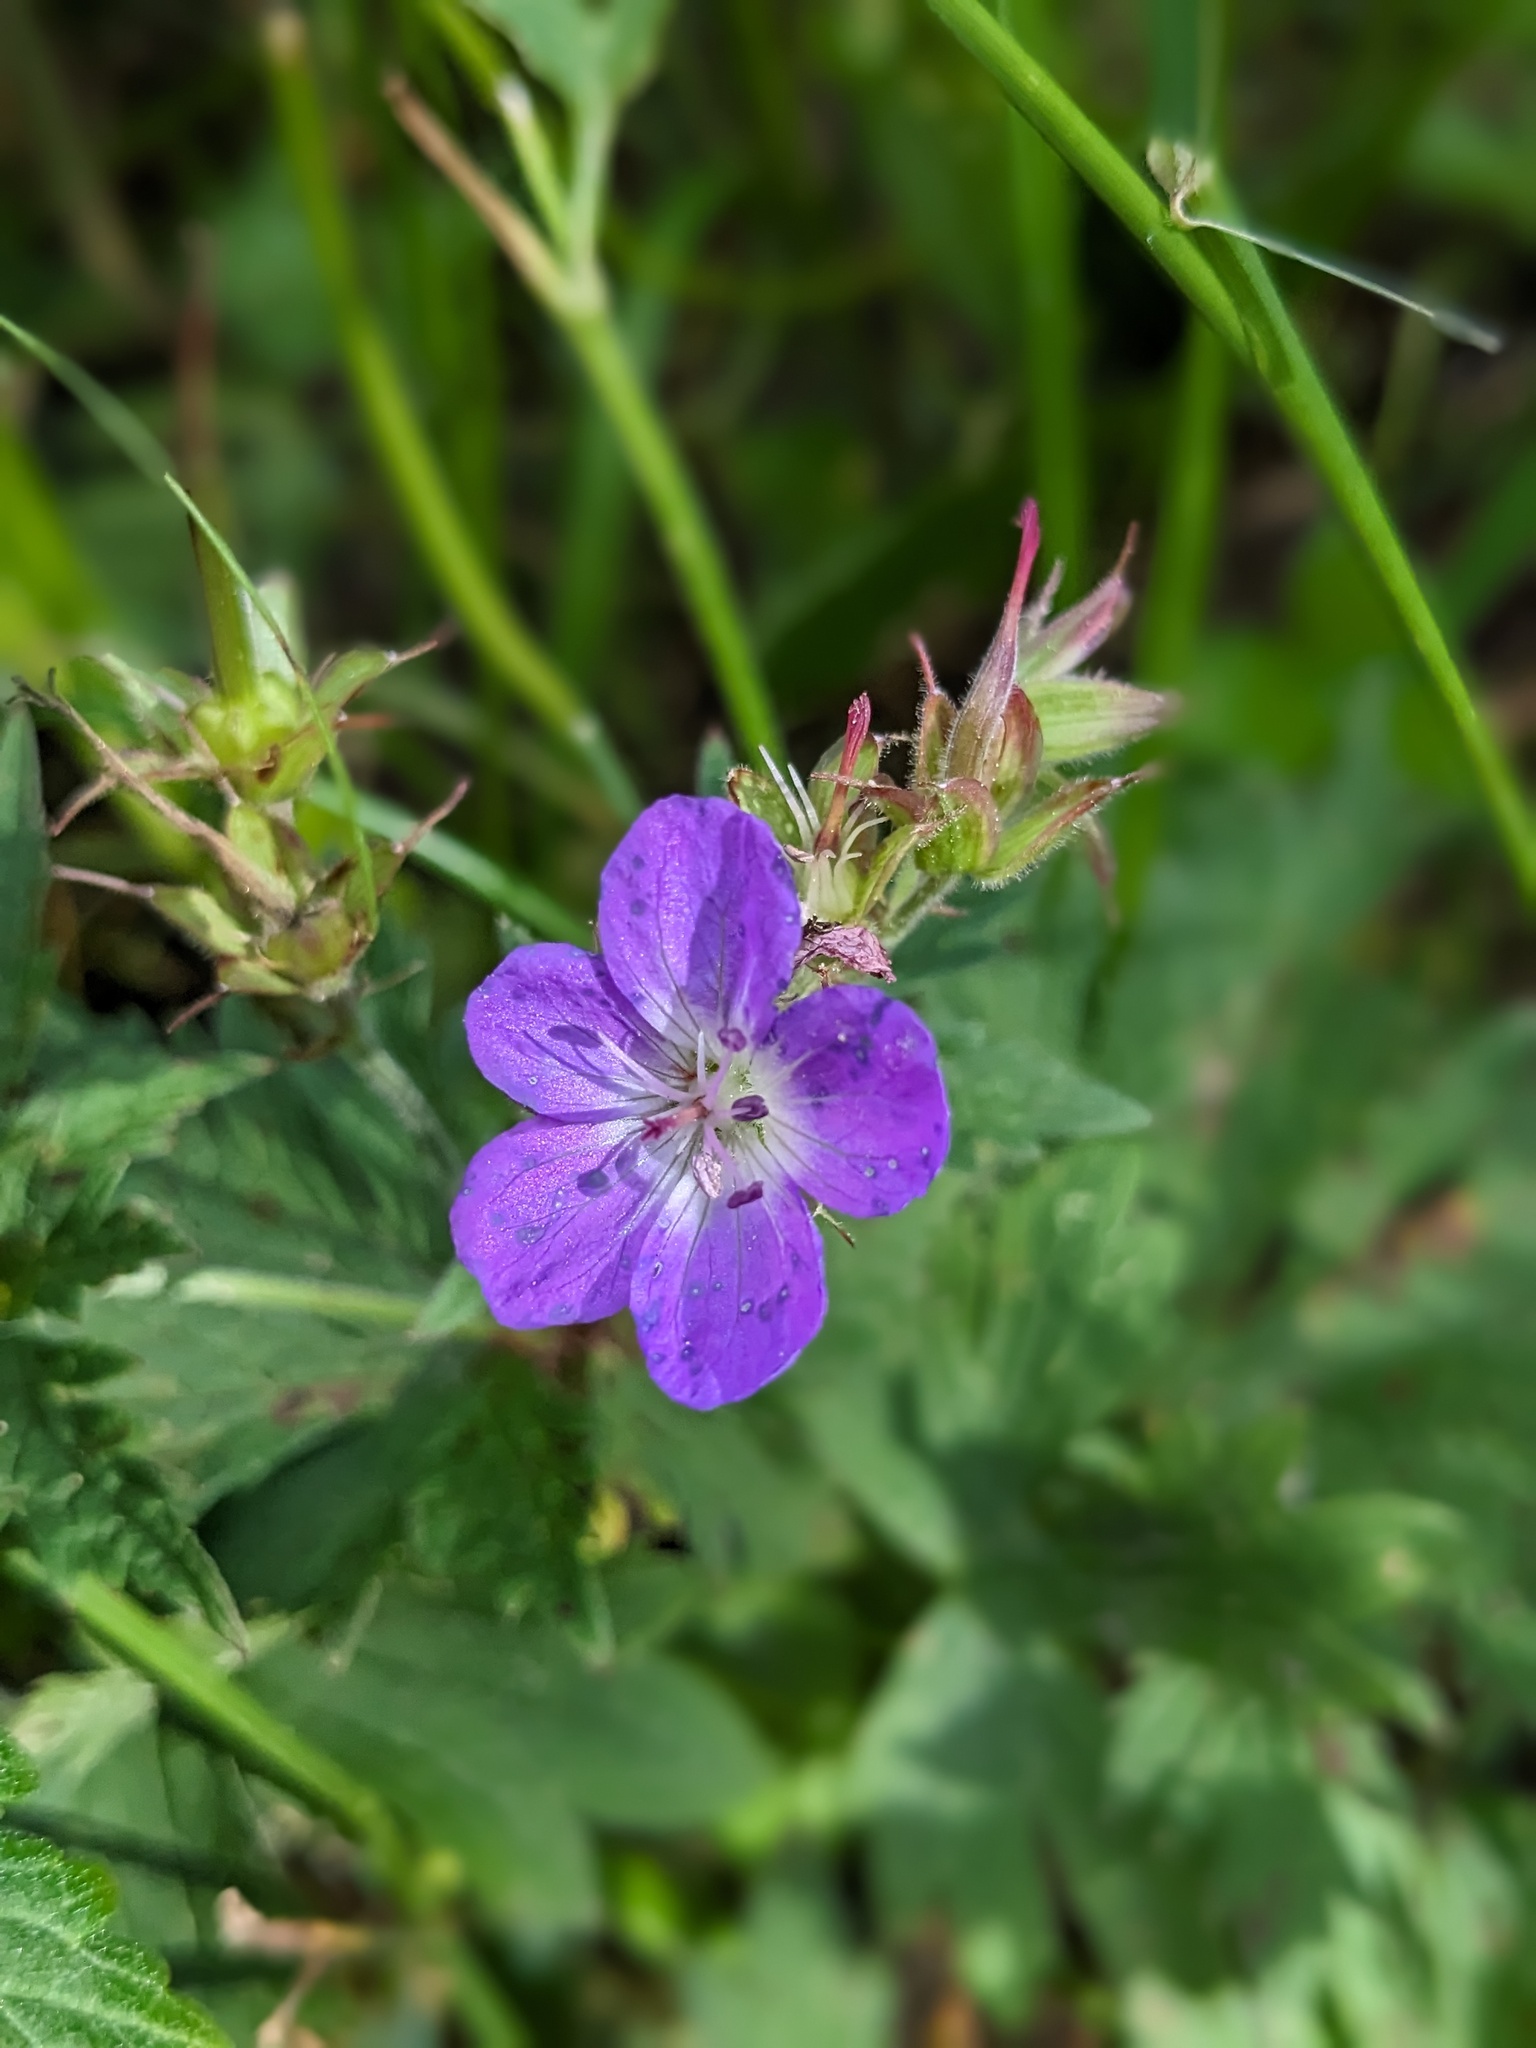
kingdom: Plantae
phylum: Tracheophyta
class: Magnoliopsida
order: Geraniales
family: Geraniaceae
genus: Geranium
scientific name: Geranium sylvaticum
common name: Wood crane's-bill
